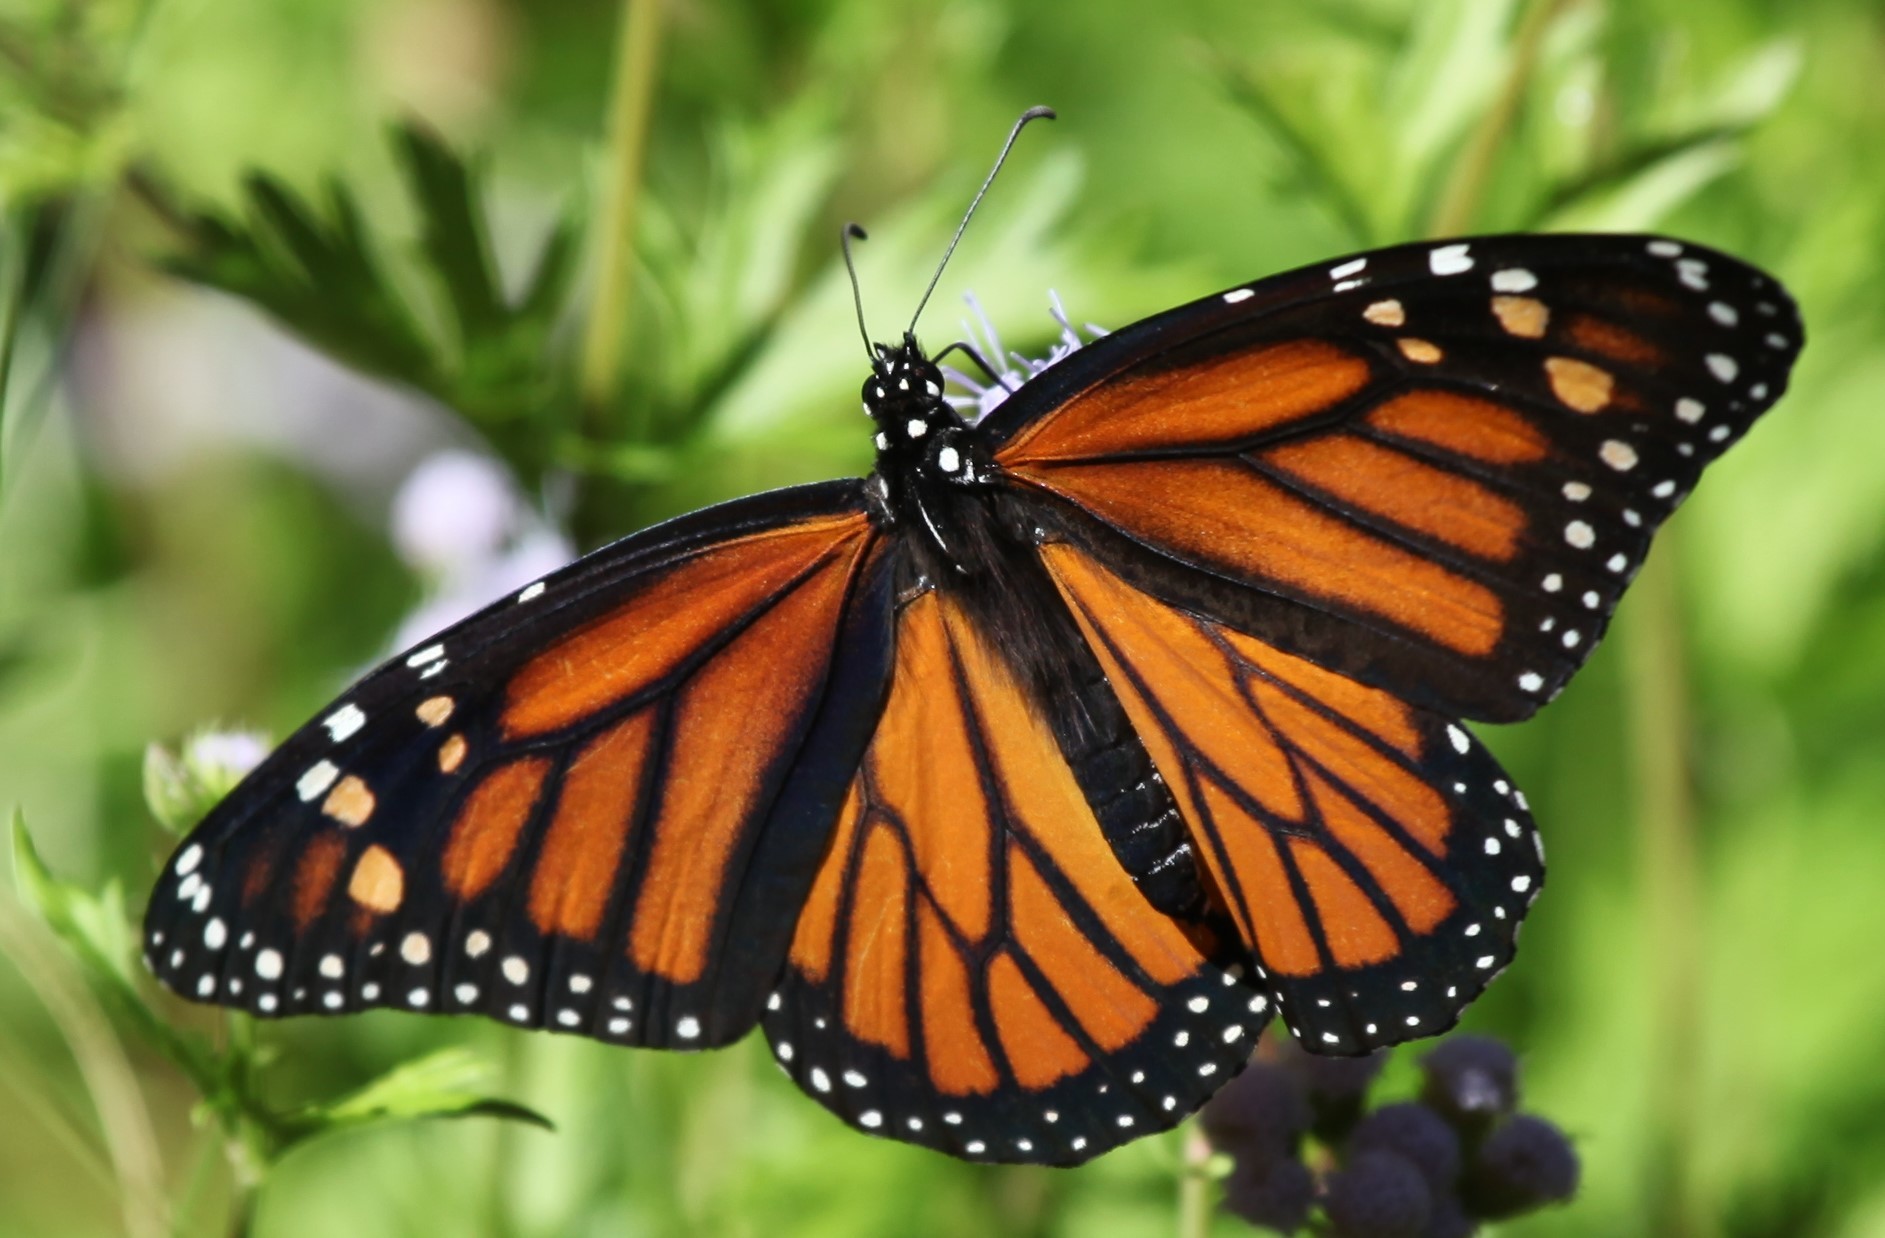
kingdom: Animalia
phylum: Arthropoda
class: Insecta
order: Lepidoptera
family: Nymphalidae
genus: Danaus
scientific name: Danaus plexippus
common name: Monarch
